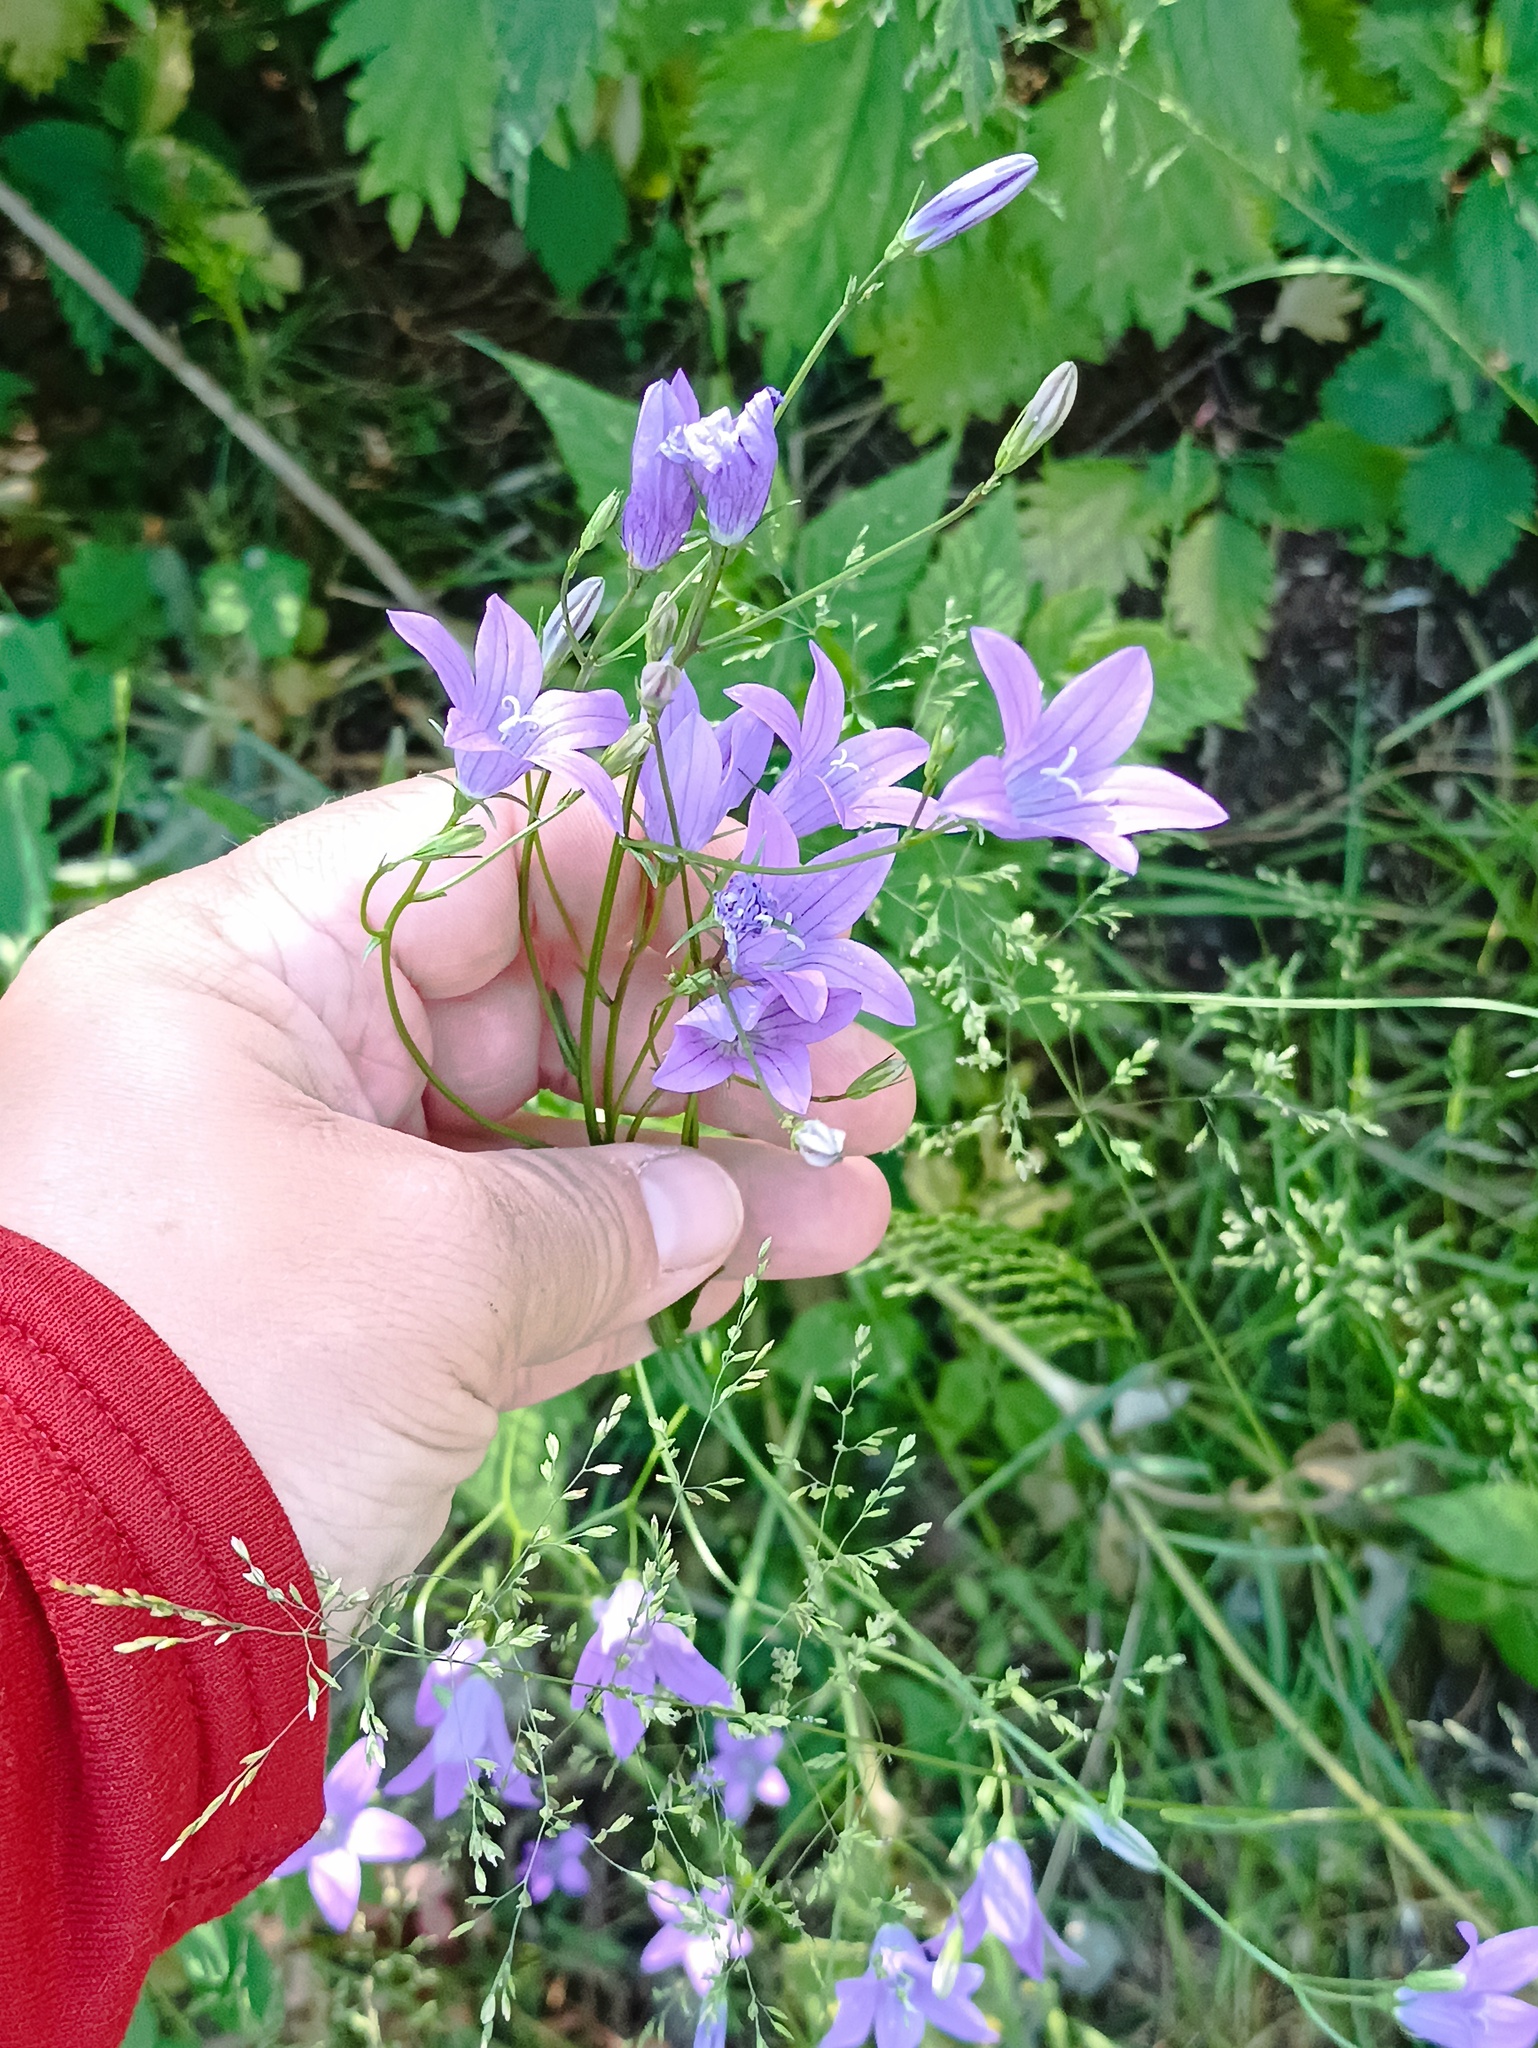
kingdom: Plantae
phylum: Tracheophyta
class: Magnoliopsida
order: Asterales
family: Campanulaceae
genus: Campanula
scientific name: Campanula patula
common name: Spreading bellflower
